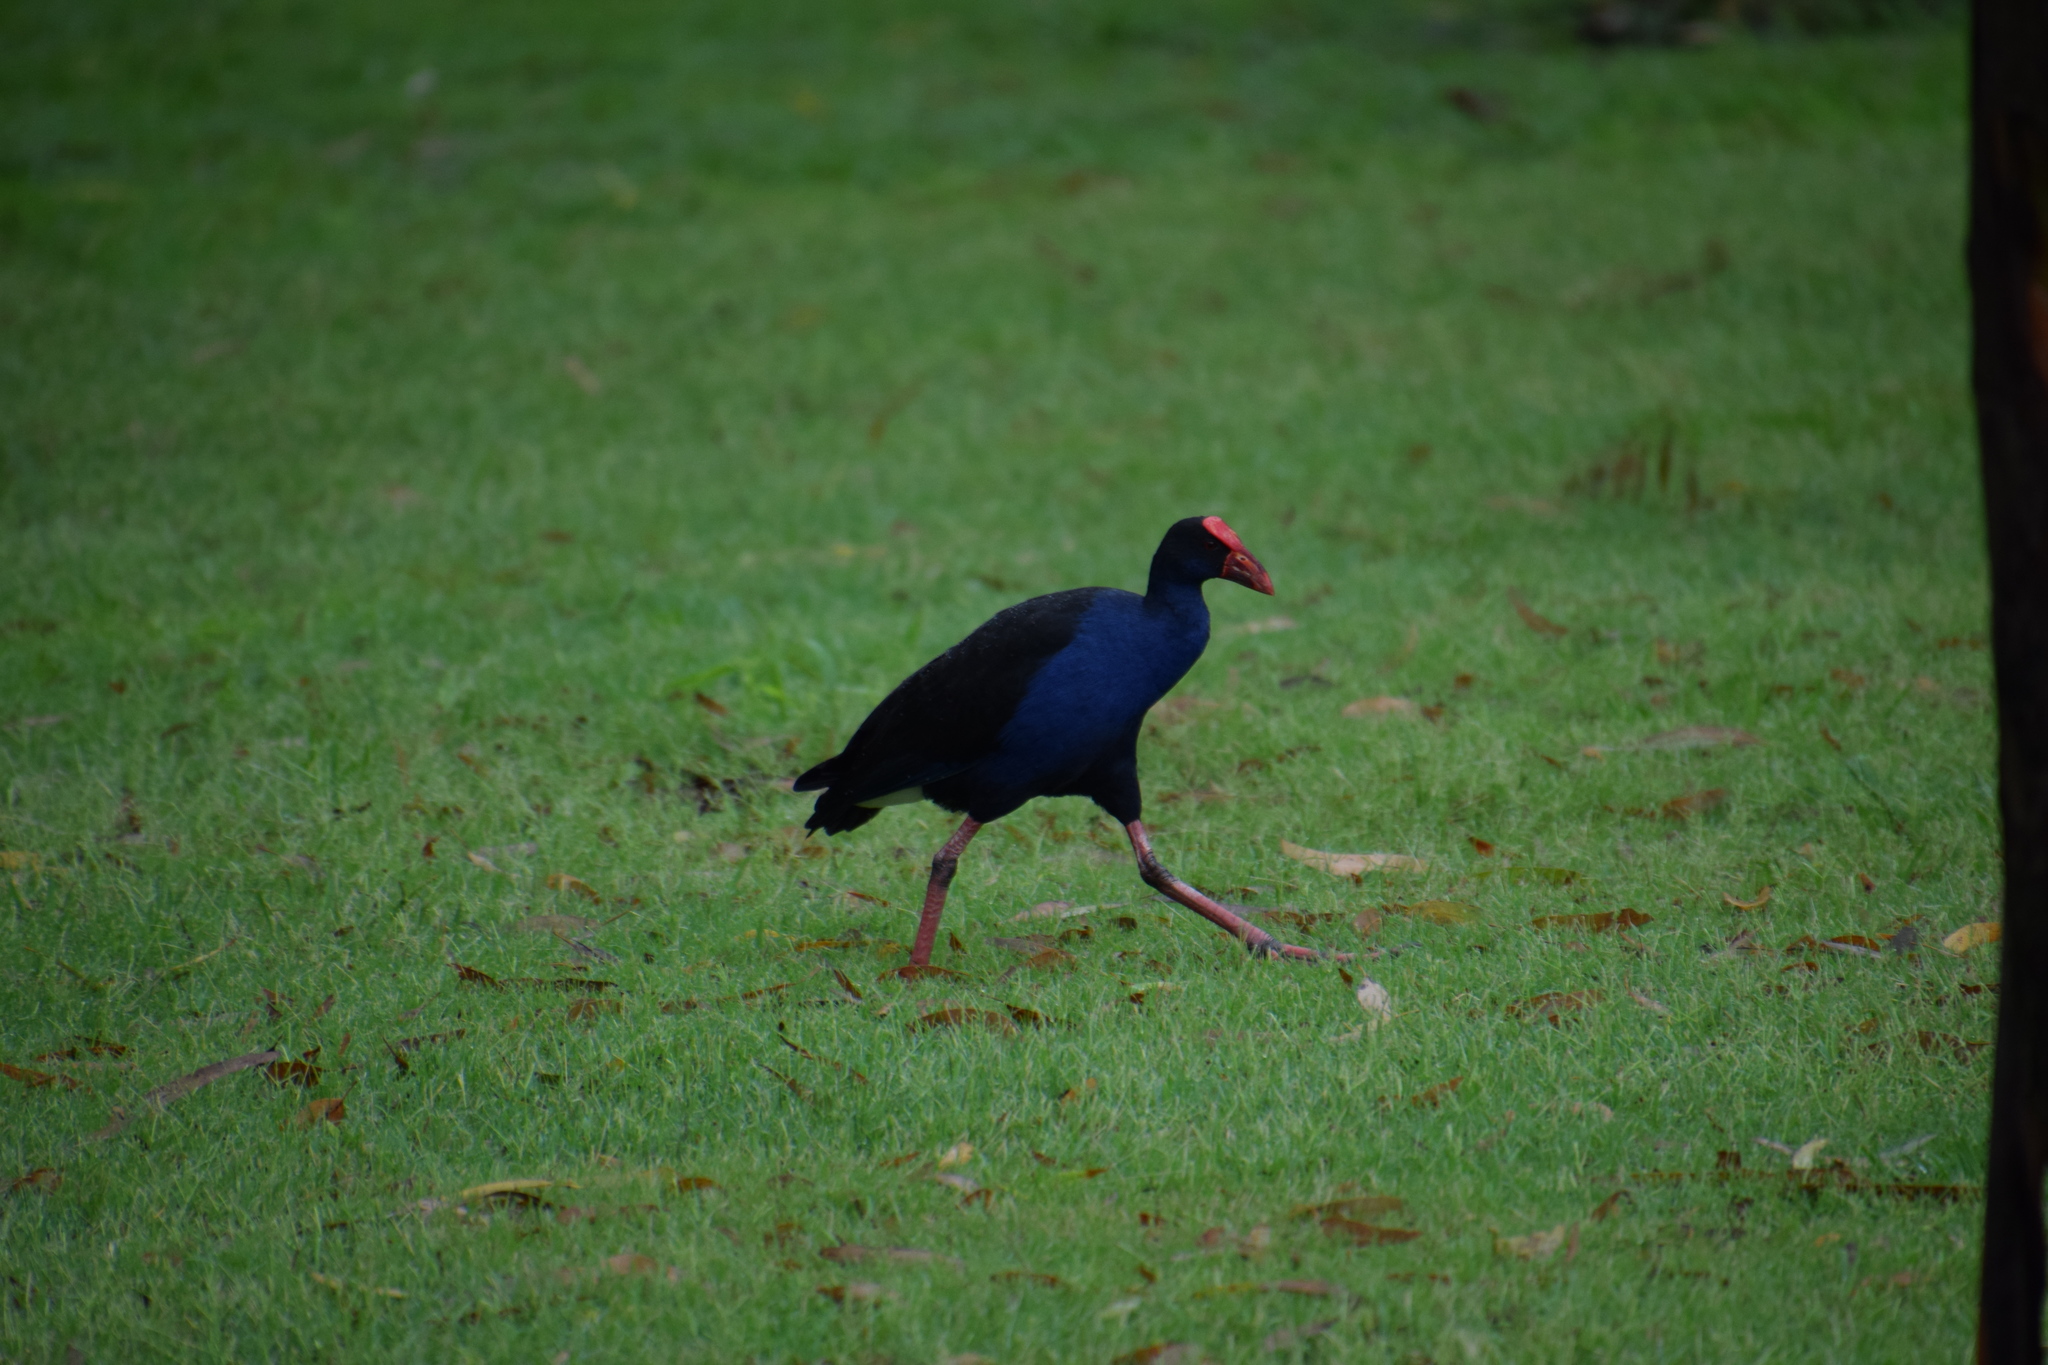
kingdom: Animalia
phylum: Chordata
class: Aves
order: Gruiformes
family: Rallidae
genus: Porphyrio
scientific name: Porphyrio melanotus
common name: Australasian swamphen
